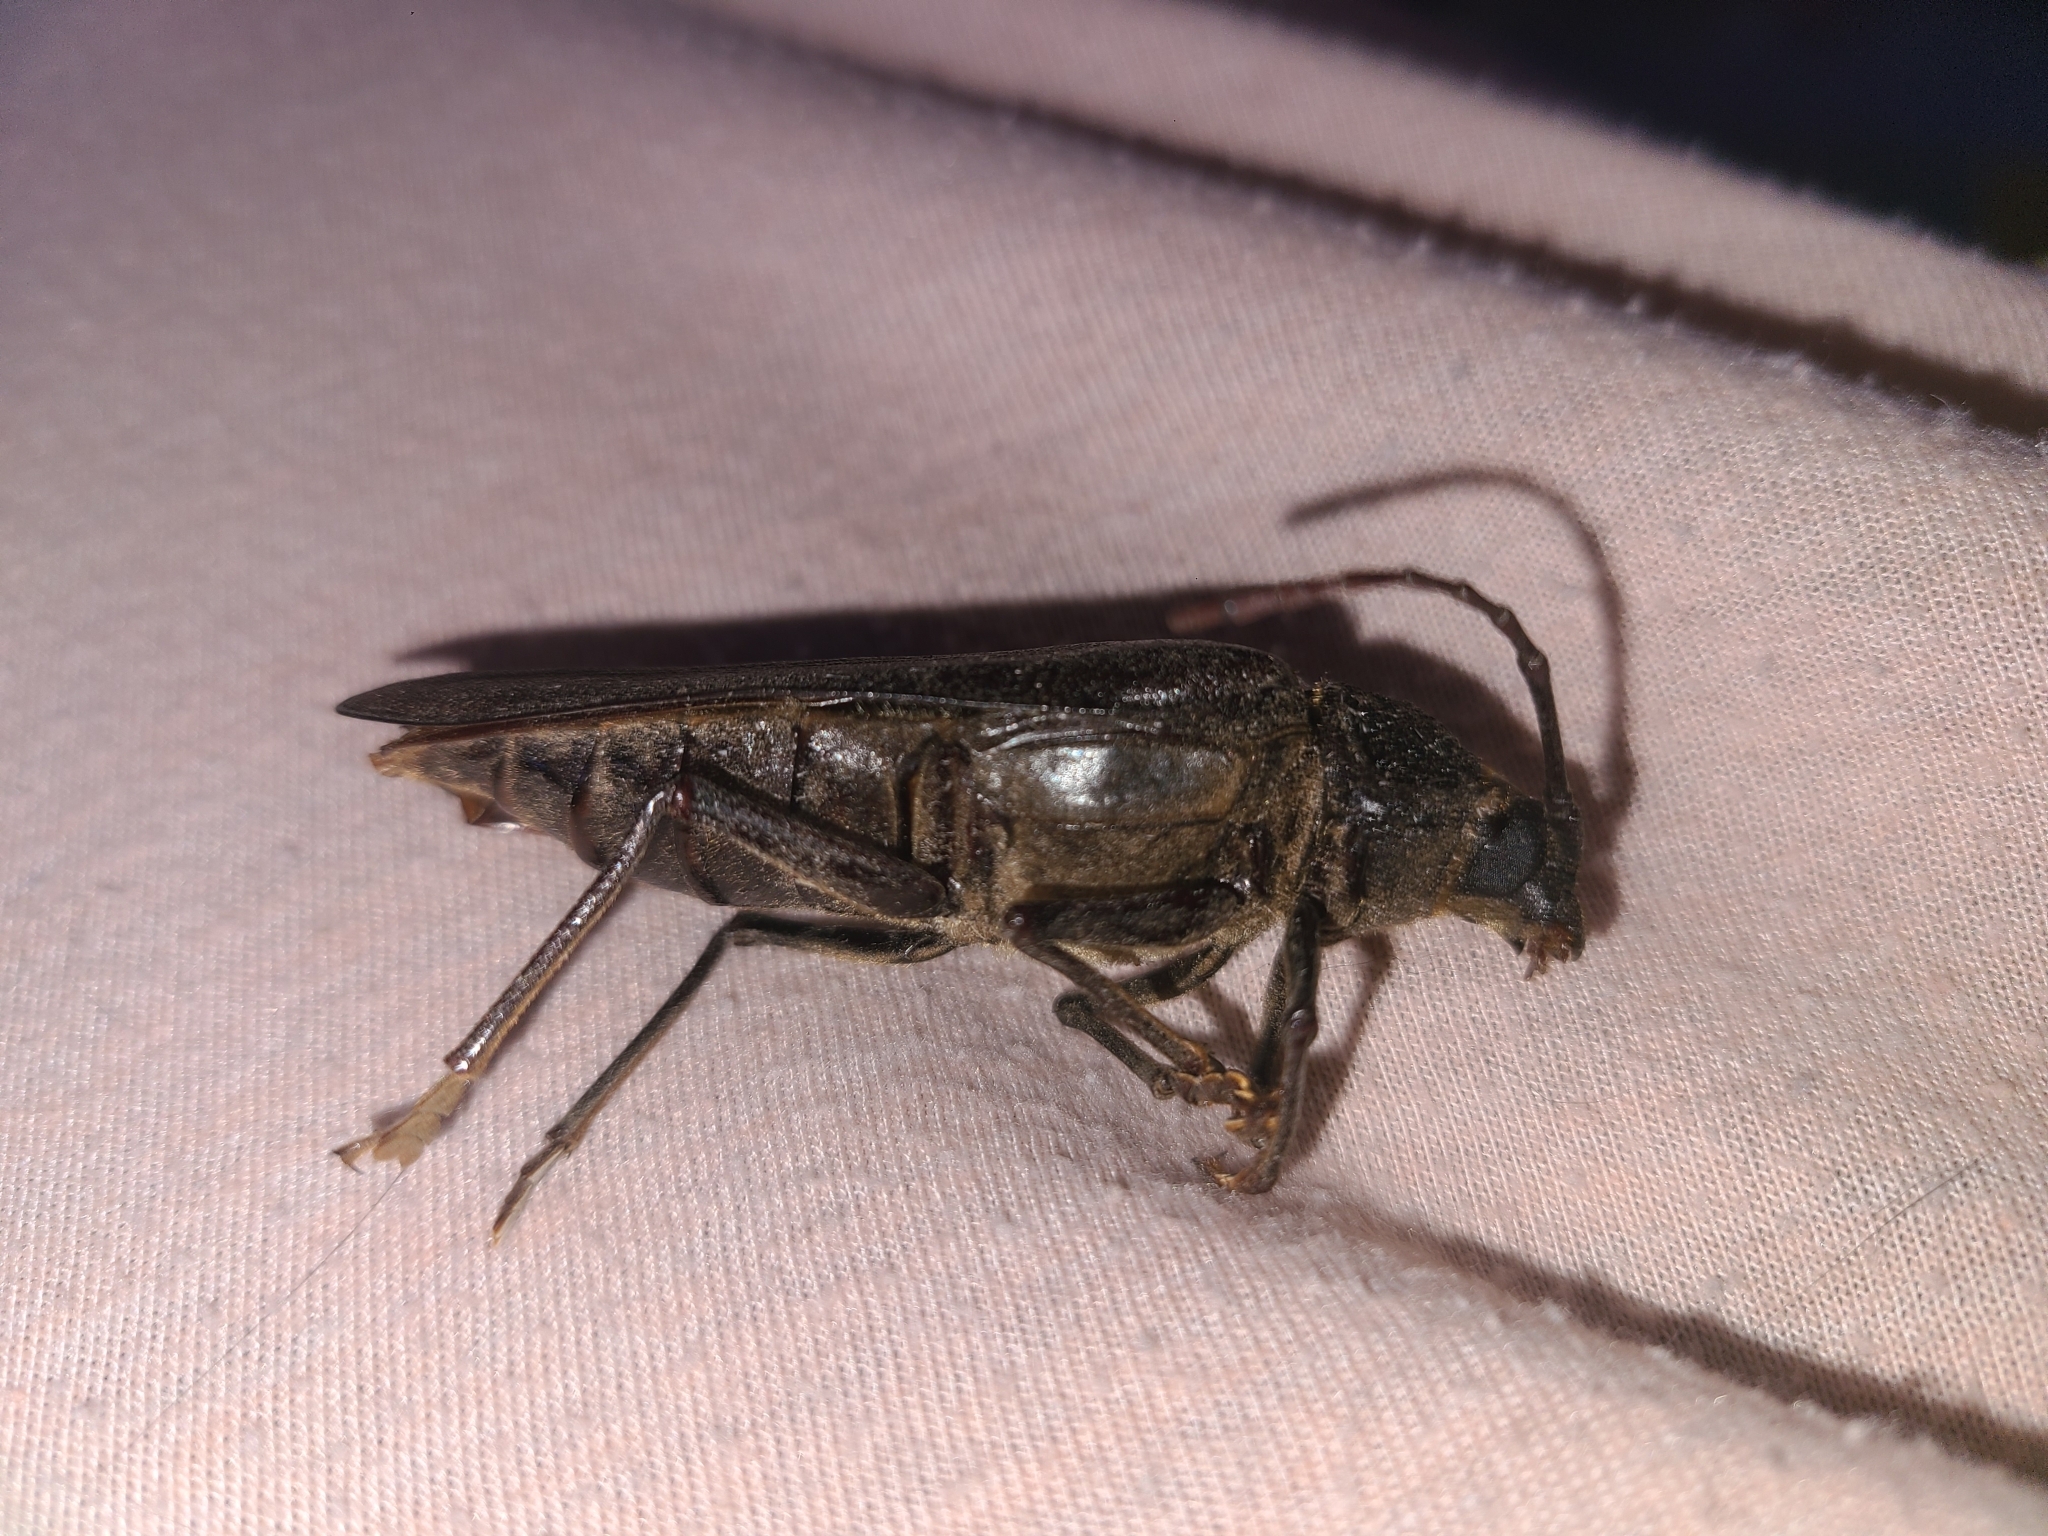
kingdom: Animalia
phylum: Arthropoda
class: Insecta
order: Coleoptera
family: Cerambycidae
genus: Trichocnemis
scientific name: Trichocnemis spiculatus
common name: Long-horned beetle
